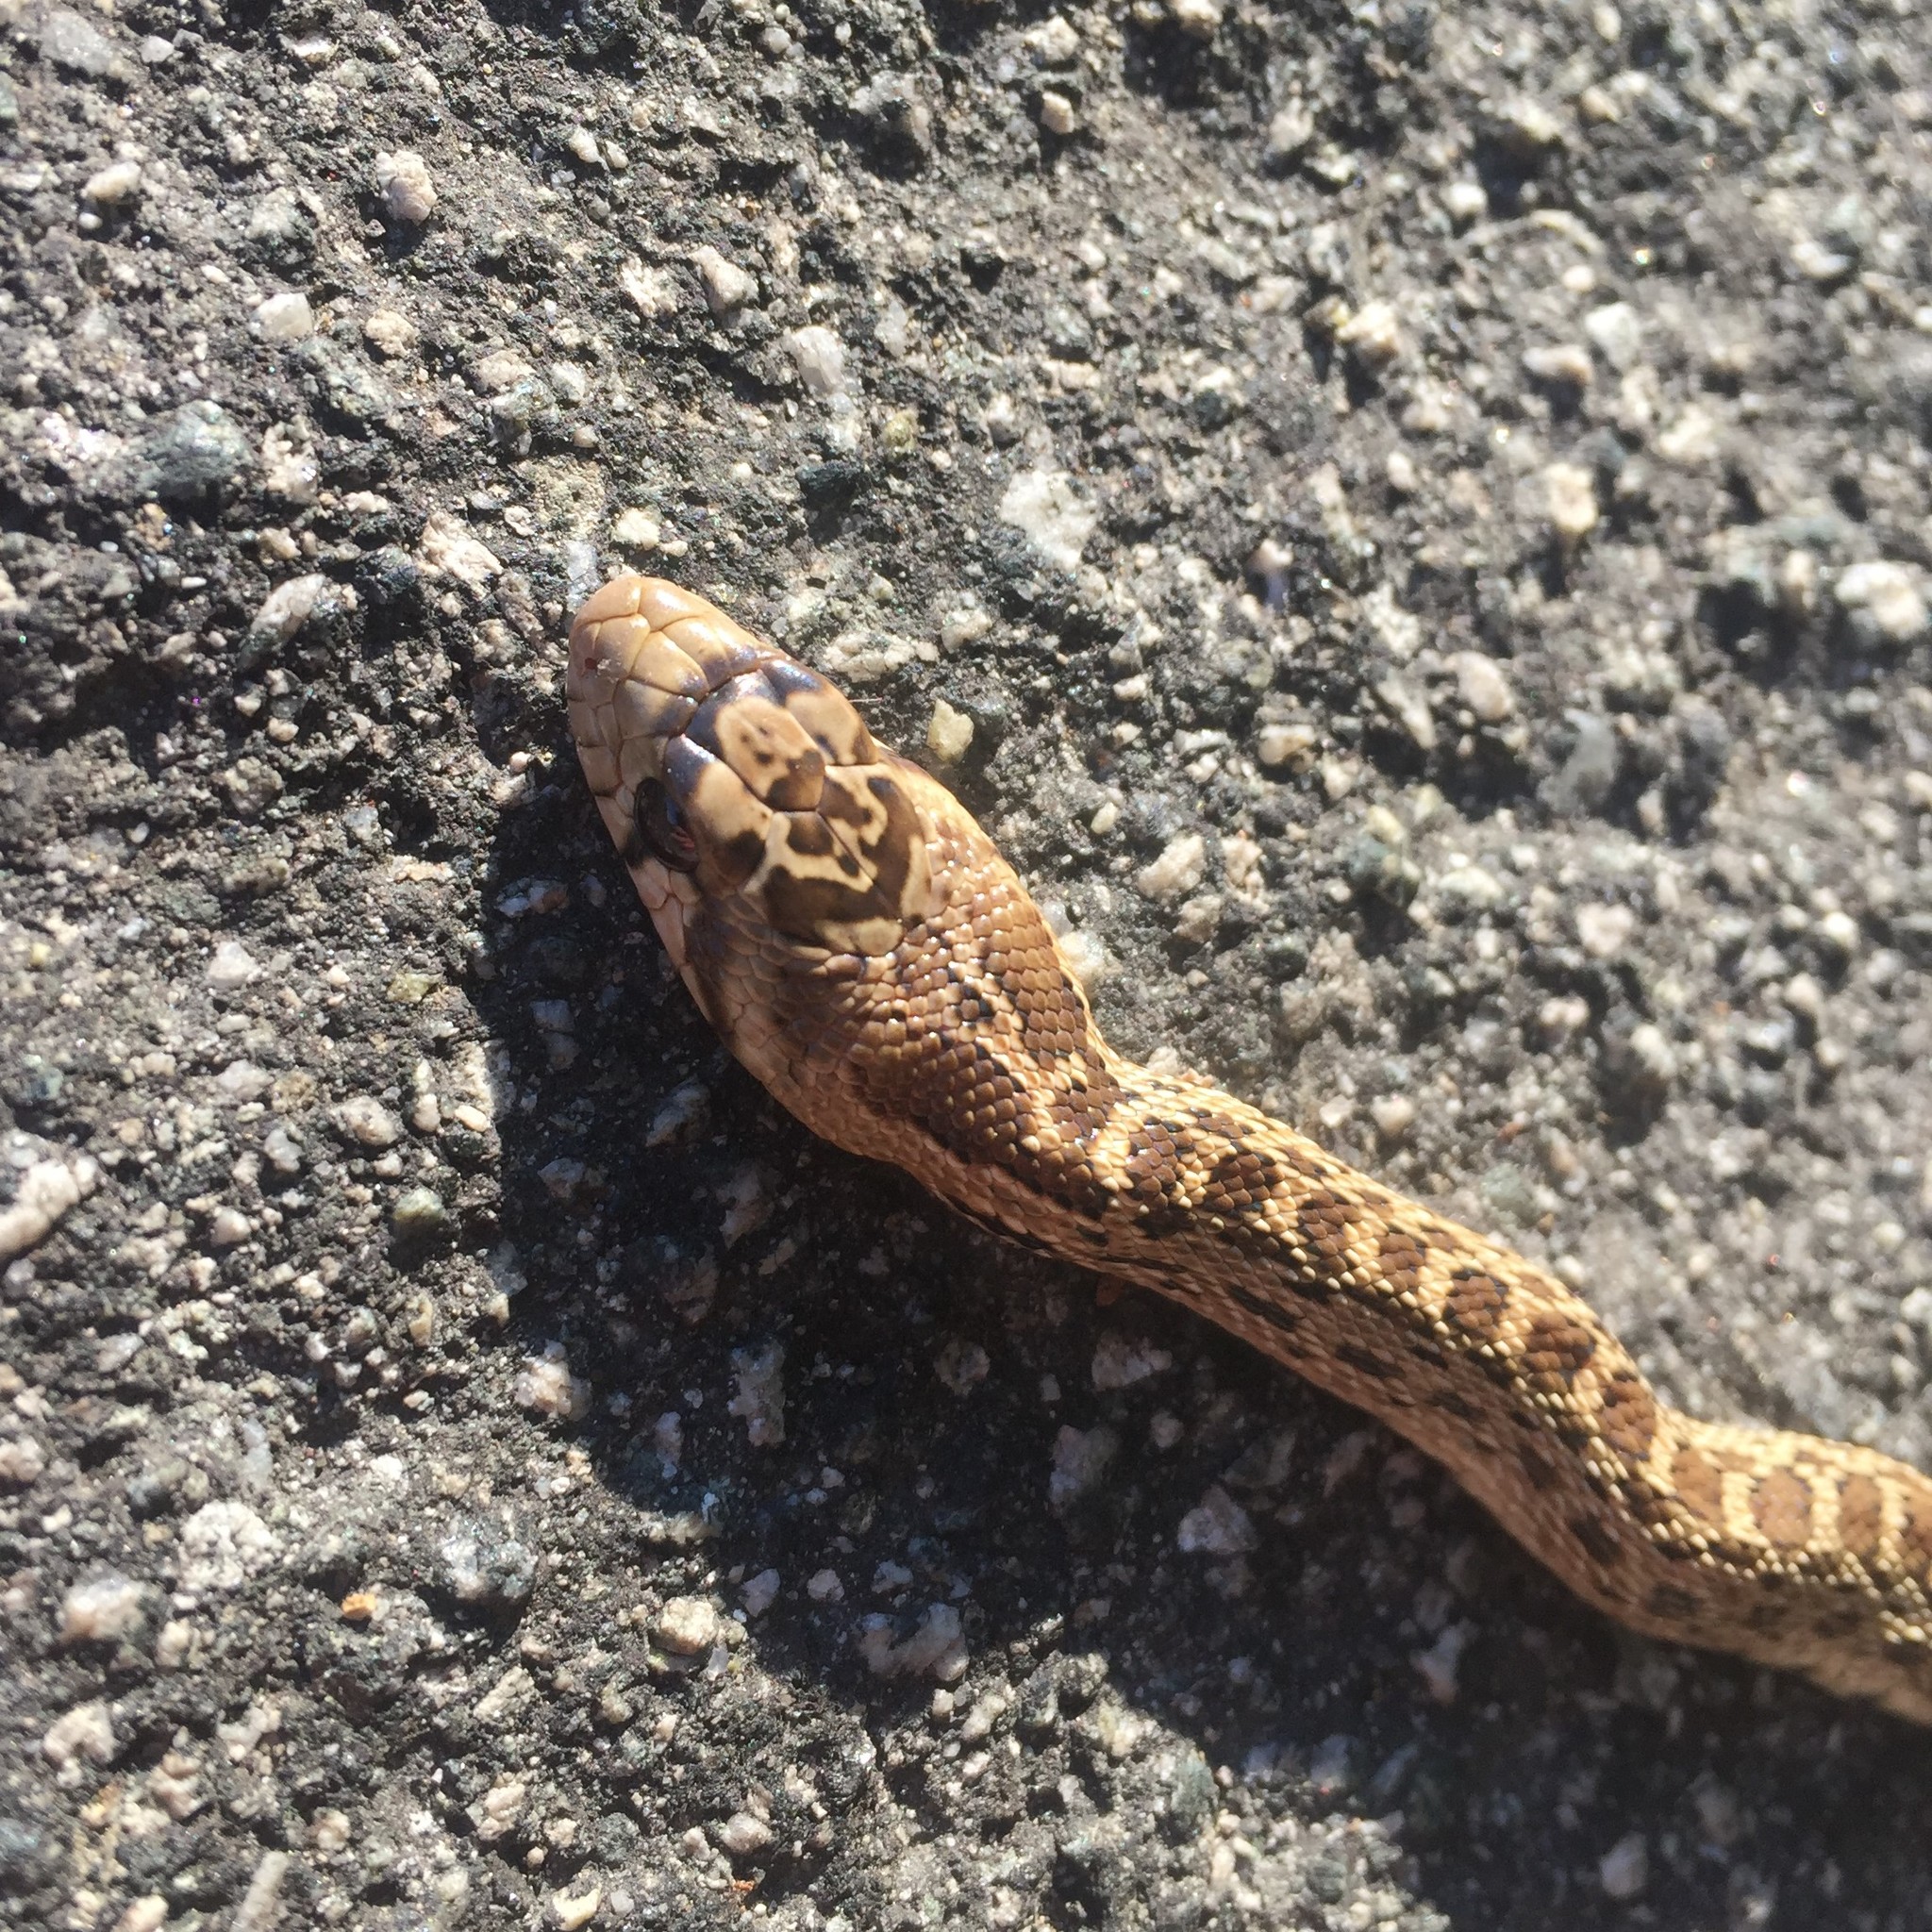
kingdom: Animalia
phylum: Chordata
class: Squamata
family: Colubridae
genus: Pituophis
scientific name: Pituophis catenifer
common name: Gopher snake
